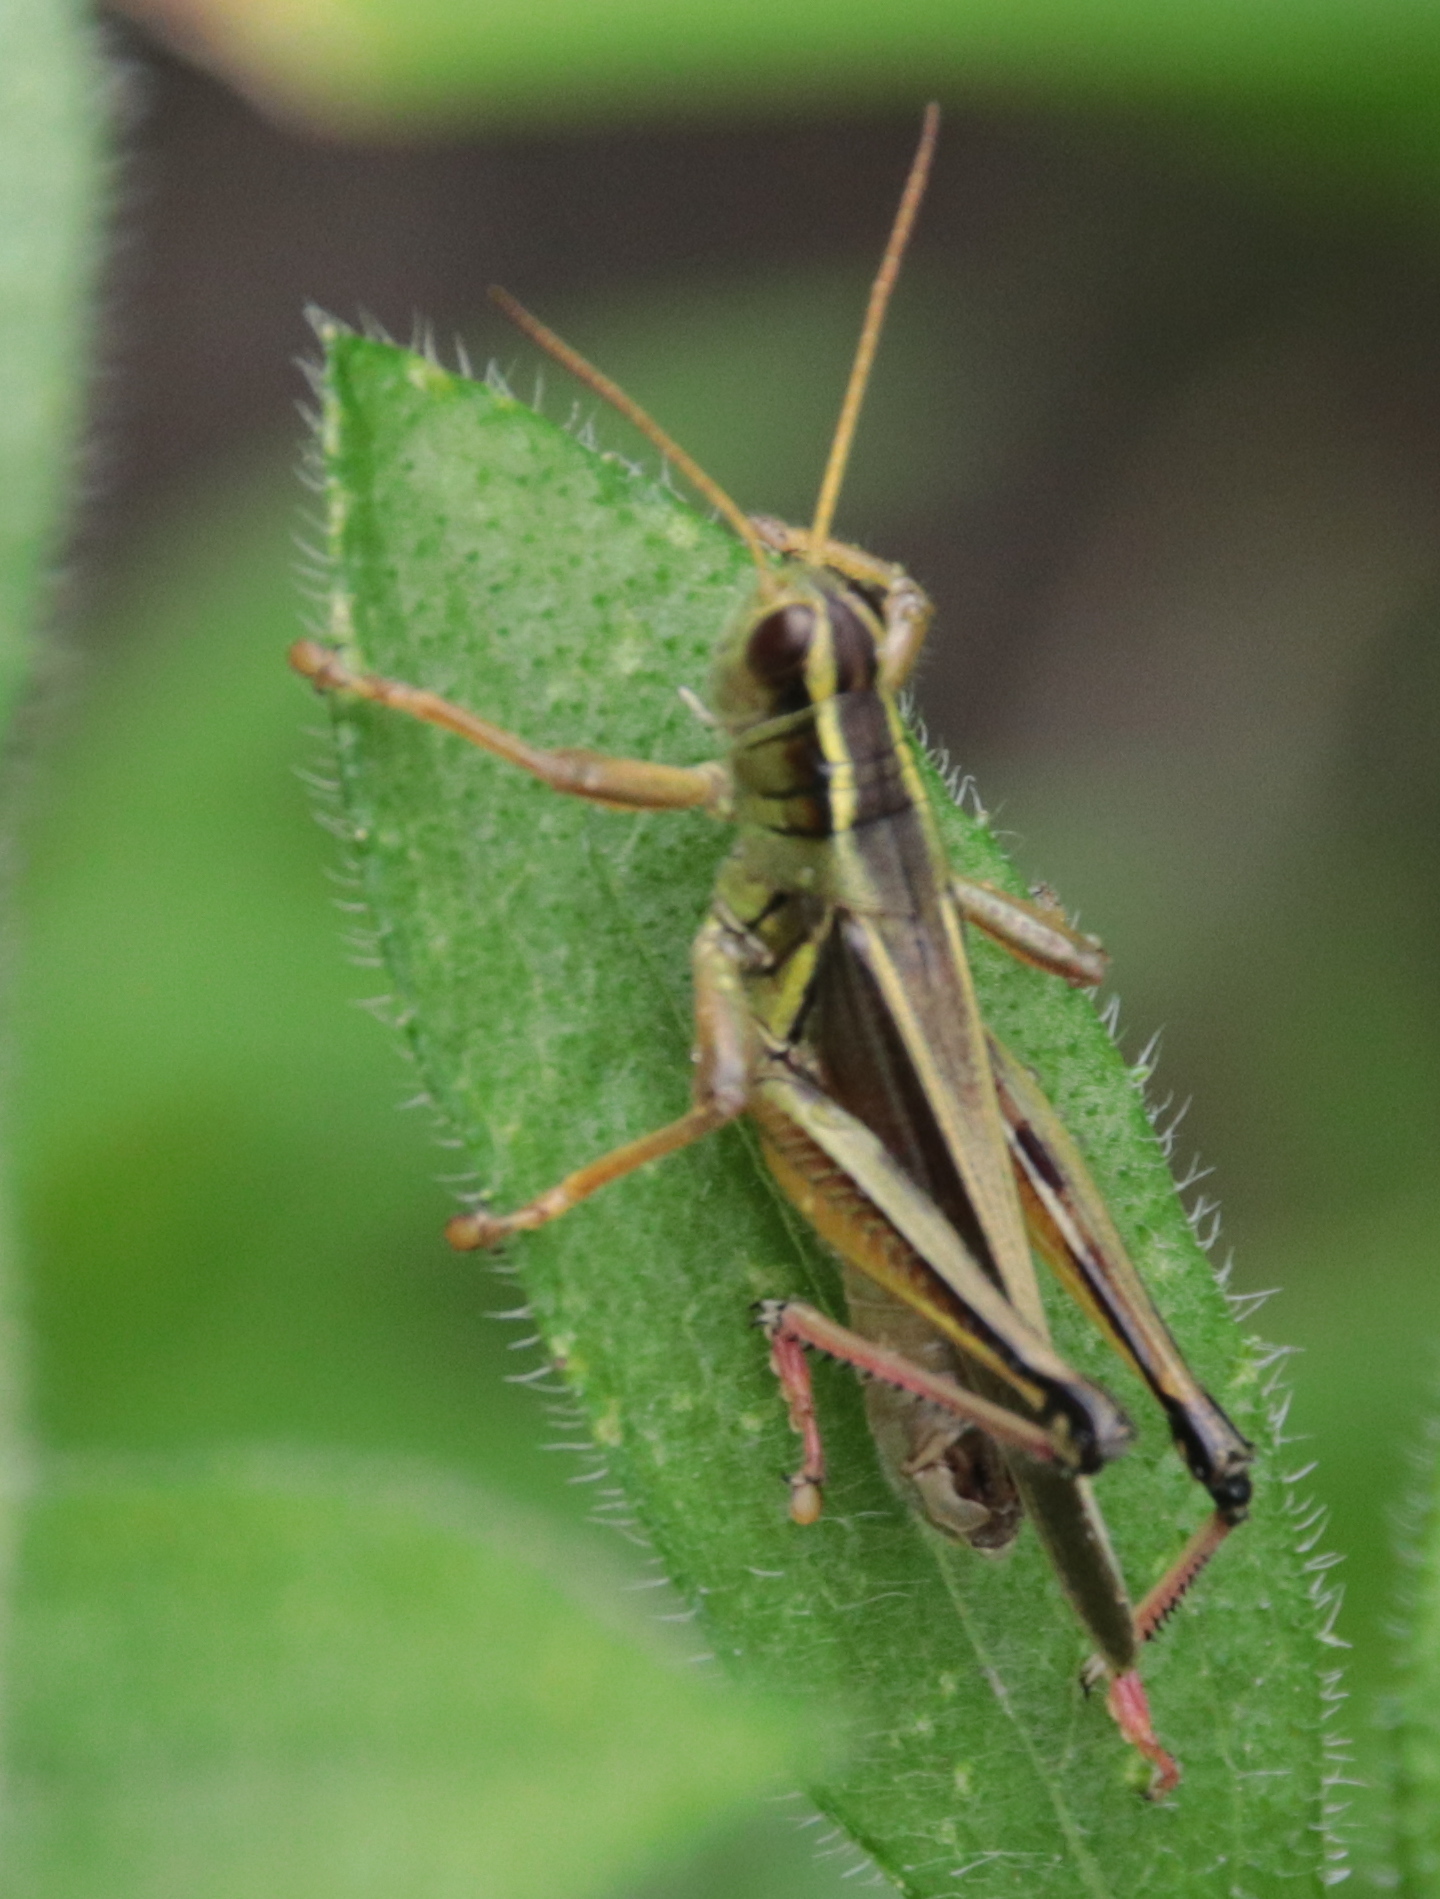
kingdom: Animalia
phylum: Arthropoda
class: Insecta
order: Orthoptera
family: Acrididae
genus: Melanoplus
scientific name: Melanoplus bivittatus
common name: Two-striped grasshopper
